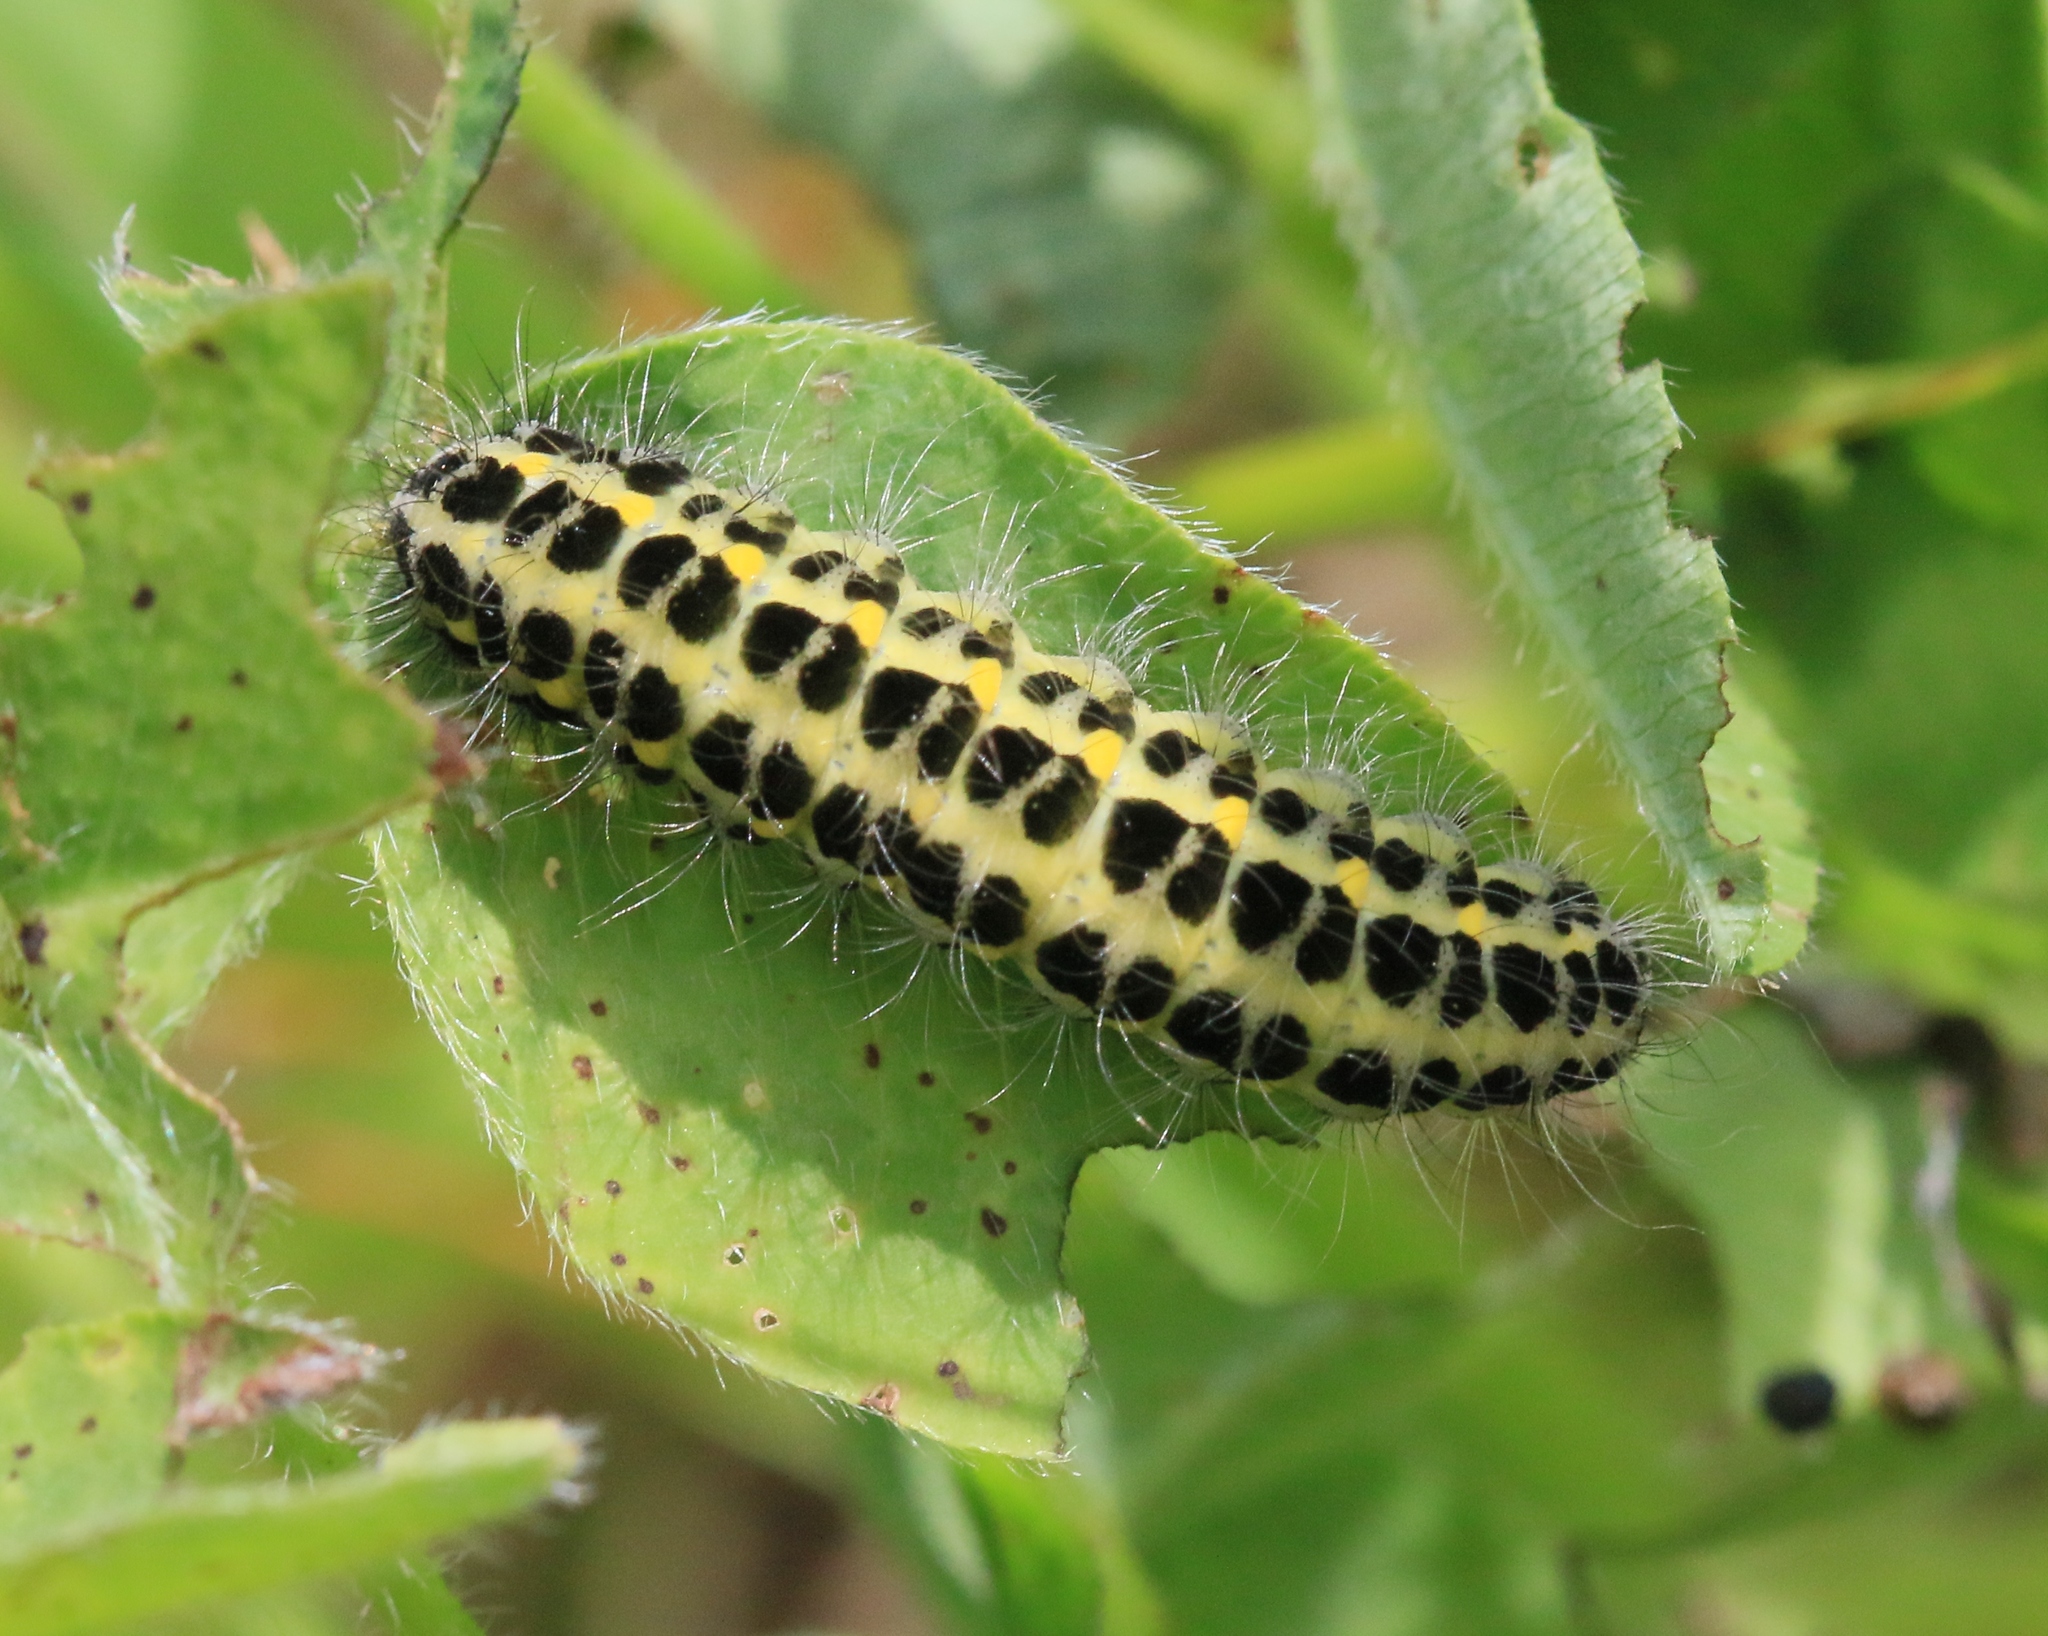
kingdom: Animalia
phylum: Arthropoda
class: Insecta
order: Lepidoptera
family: Zygaenidae
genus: Zygaena
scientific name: Zygaena lonicerae
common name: Narrow-bordered five-spot burnet
